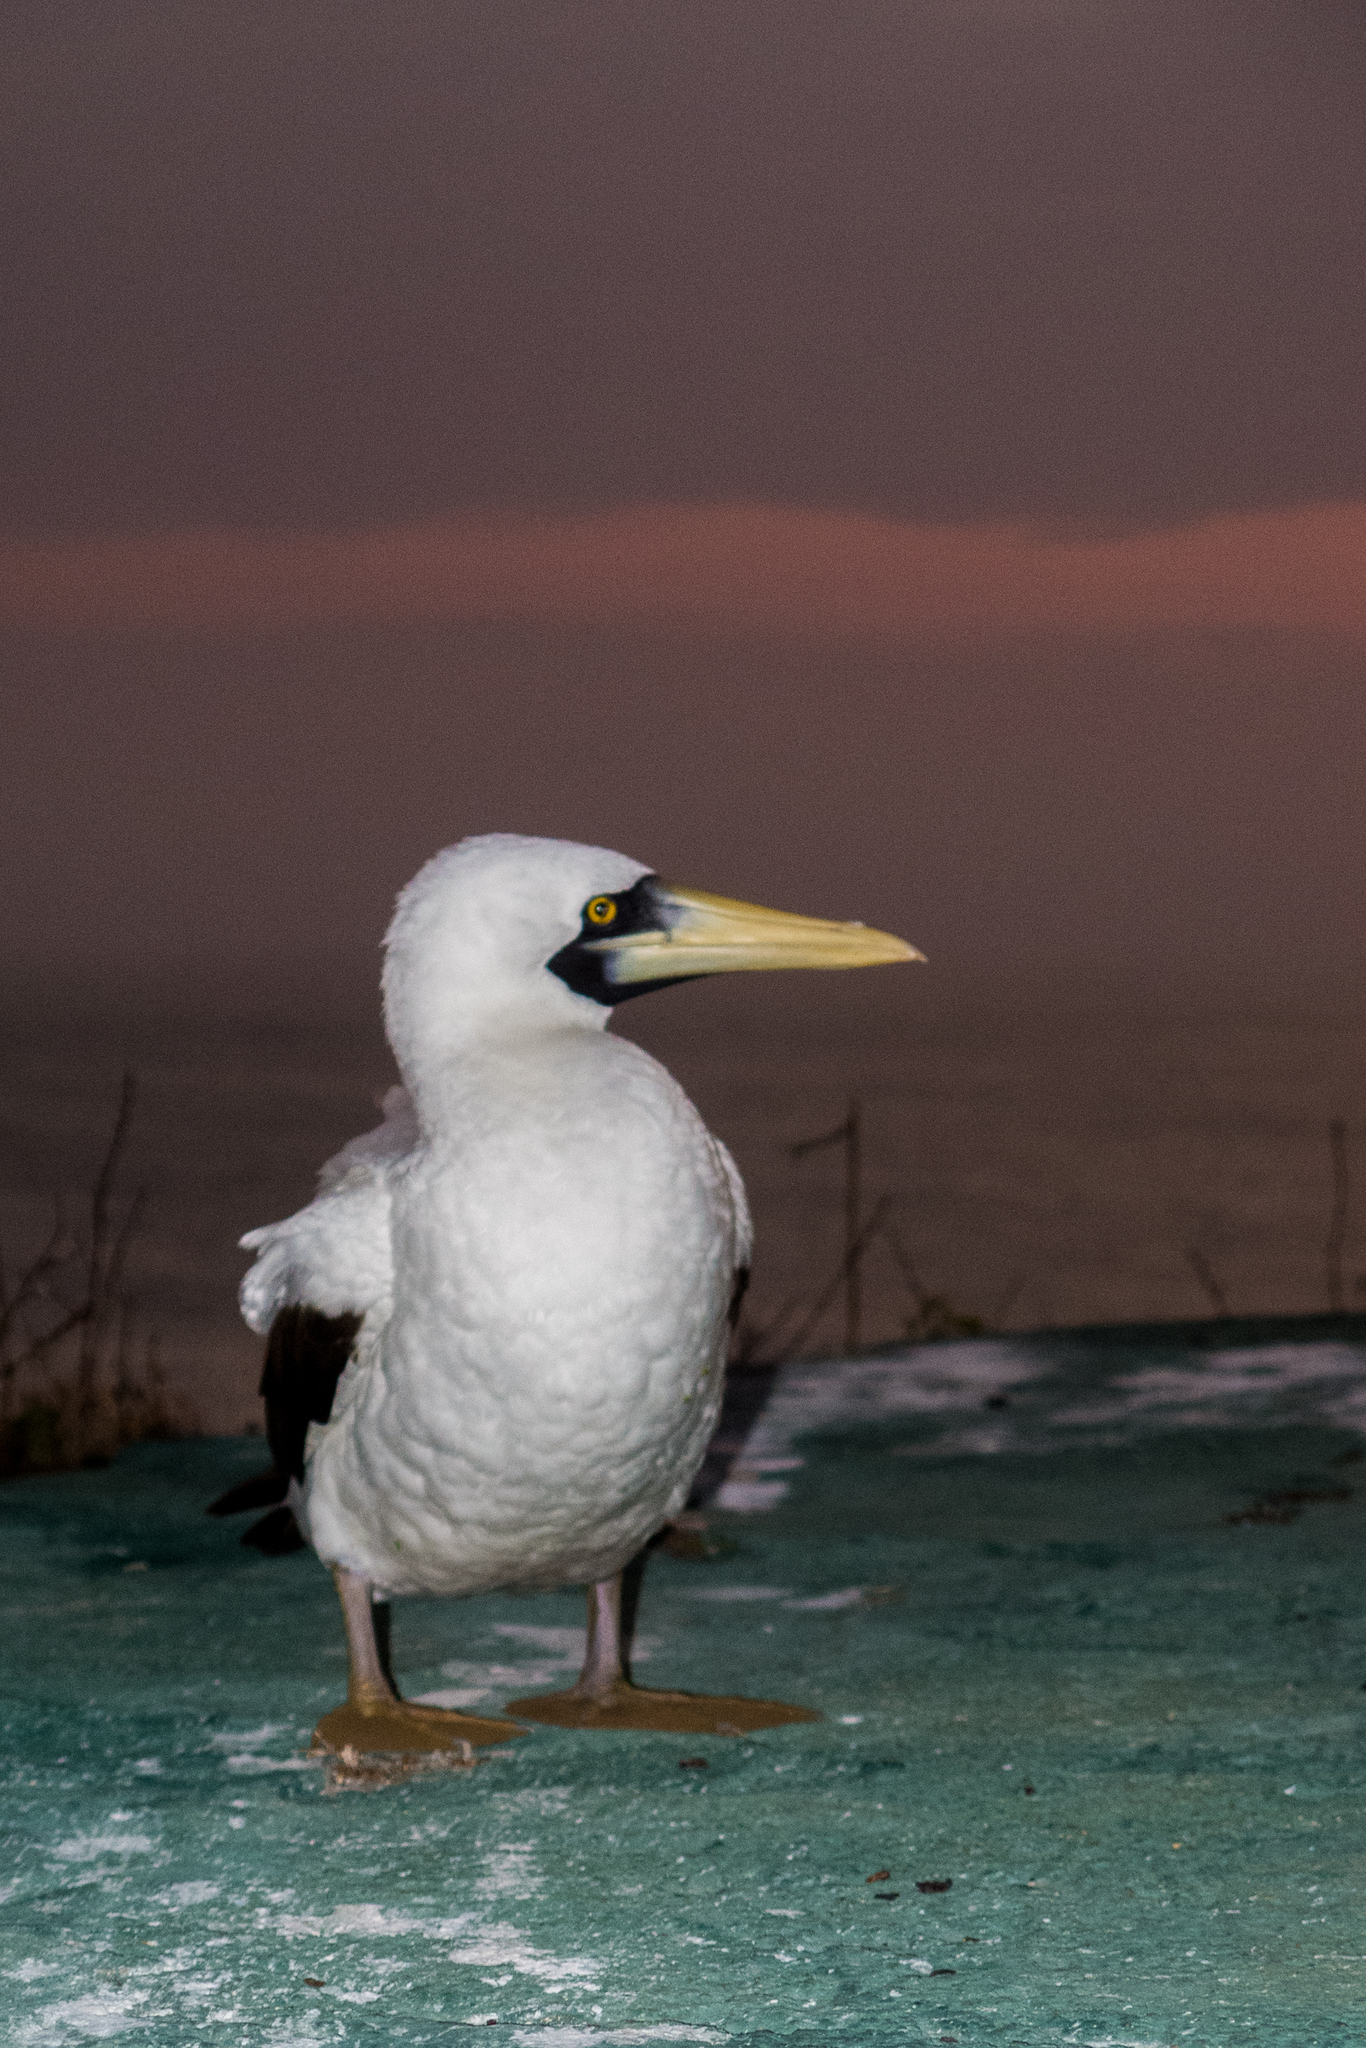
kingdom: Animalia
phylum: Chordata
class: Aves
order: Suliformes
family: Sulidae
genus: Sula
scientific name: Sula dactylatra
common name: Masked booby
